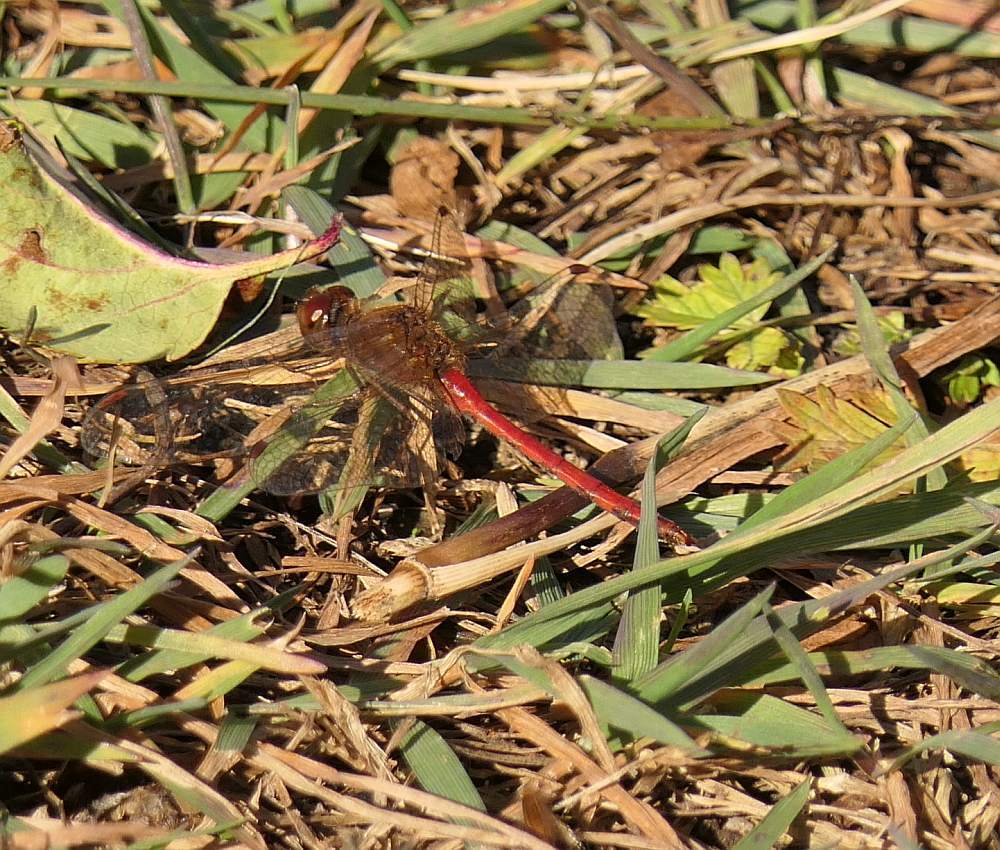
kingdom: Animalia
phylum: Arthropoda
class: Insecta
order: Odonata
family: Libellulidae
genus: Sympetrum
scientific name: Sympetrum vicinum
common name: Autumn meadowhawk
